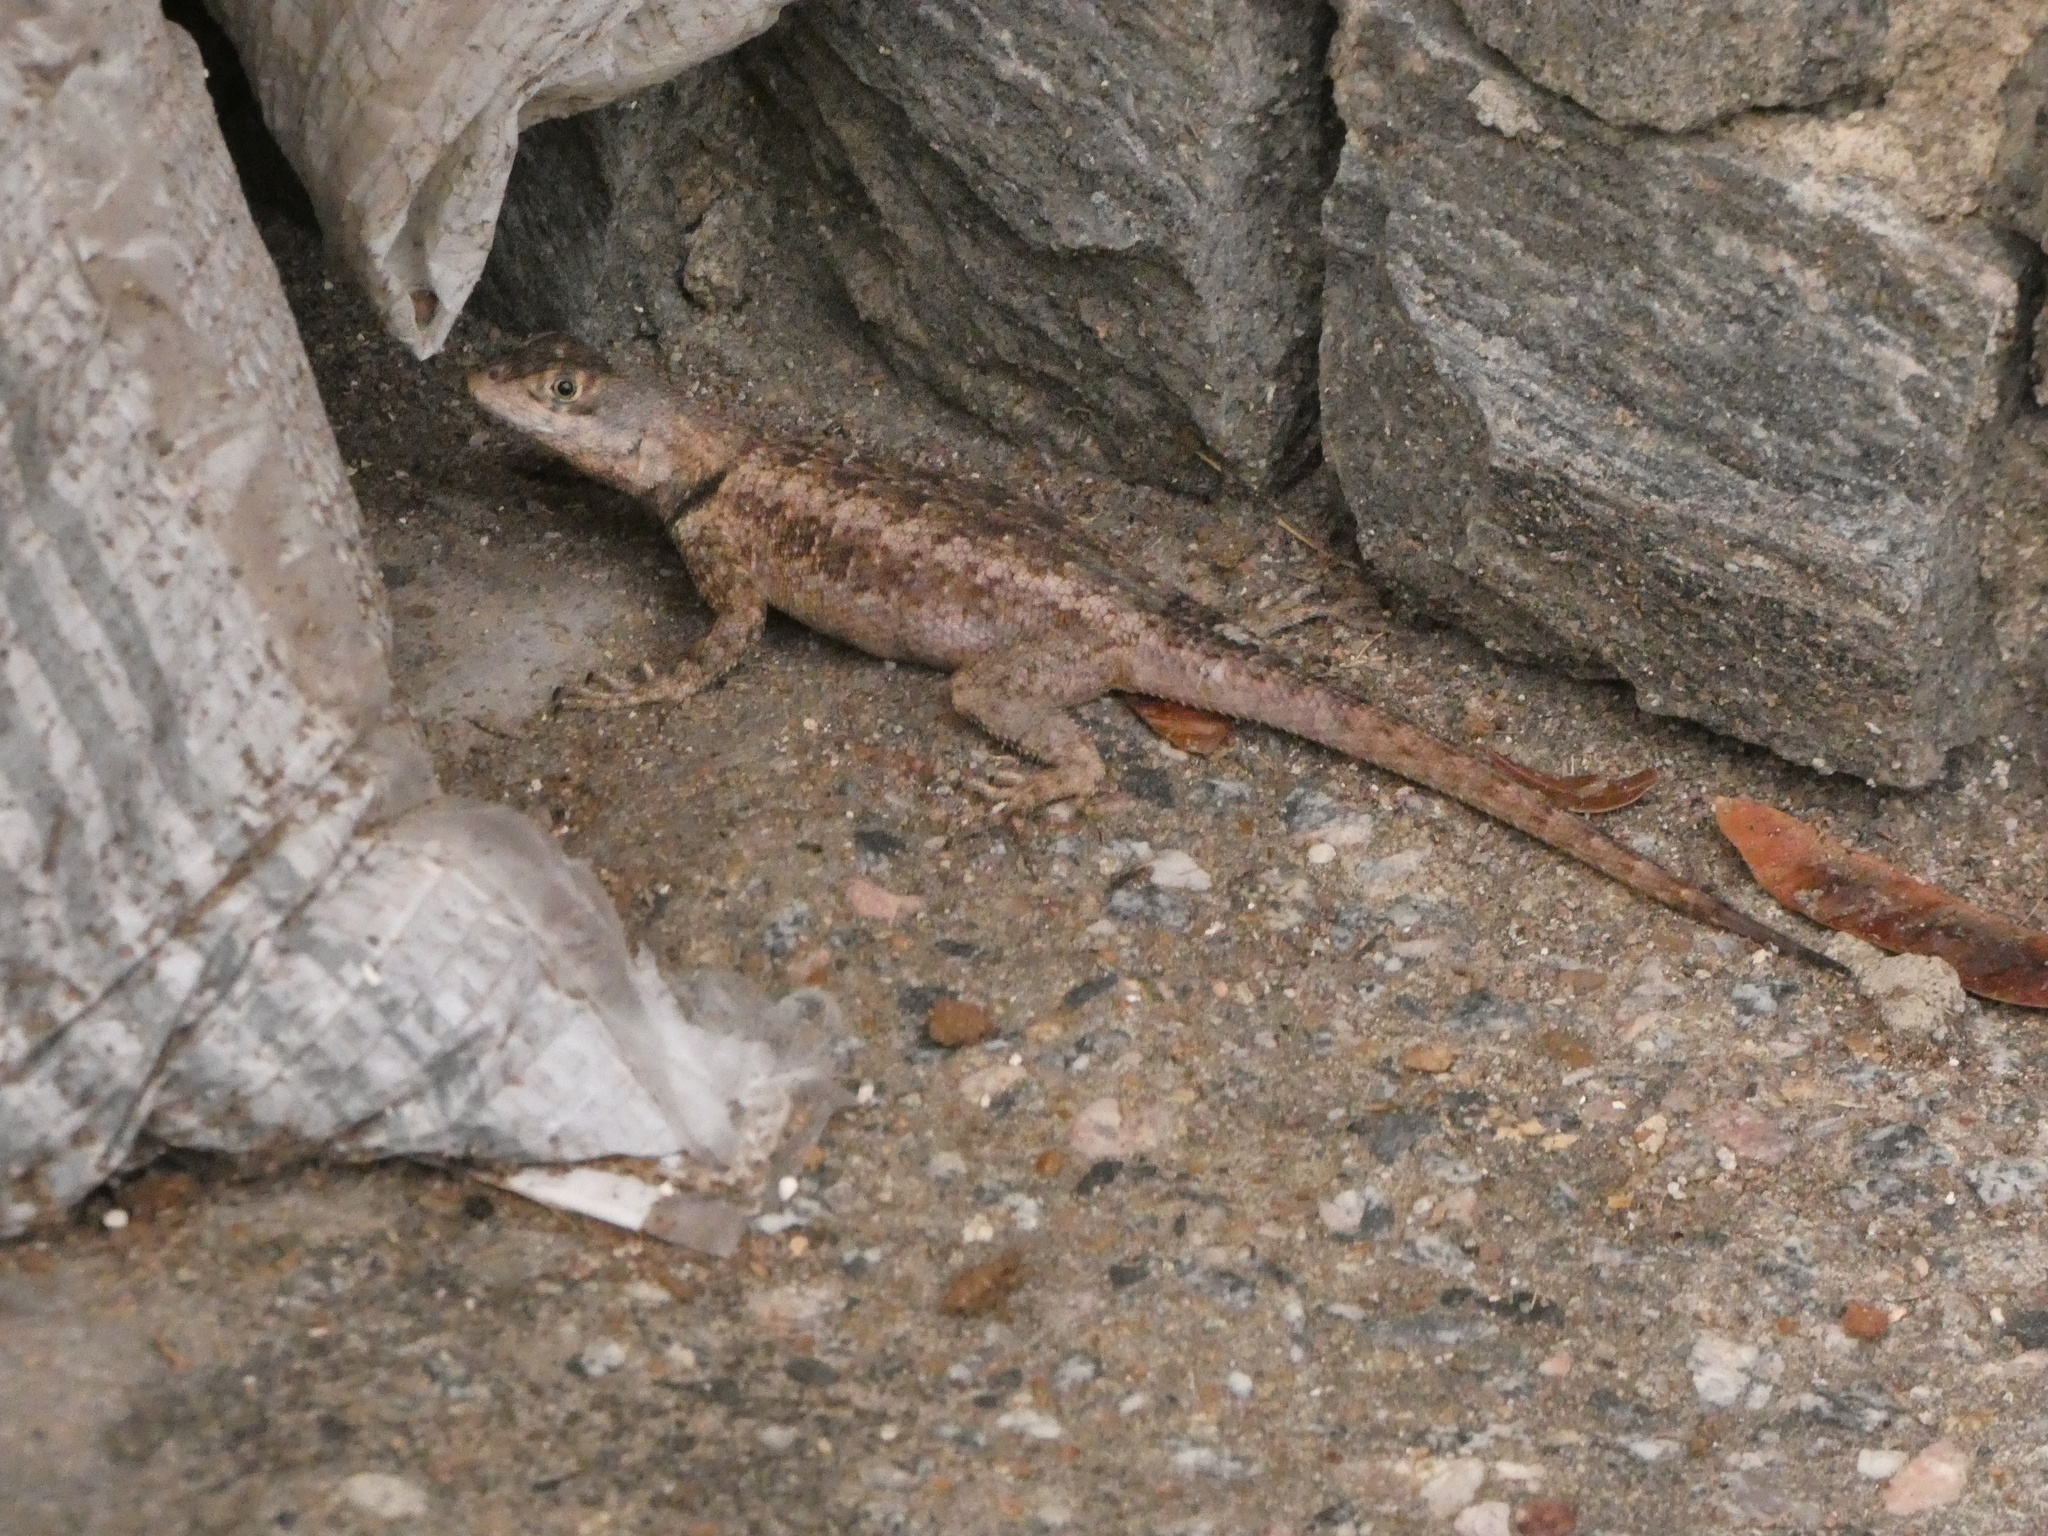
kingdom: Animalia
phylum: Chordata
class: Squamata
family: Tropiduridae
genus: Tropidurus
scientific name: Tropidurus hispidus
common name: Peters' lava lizard
